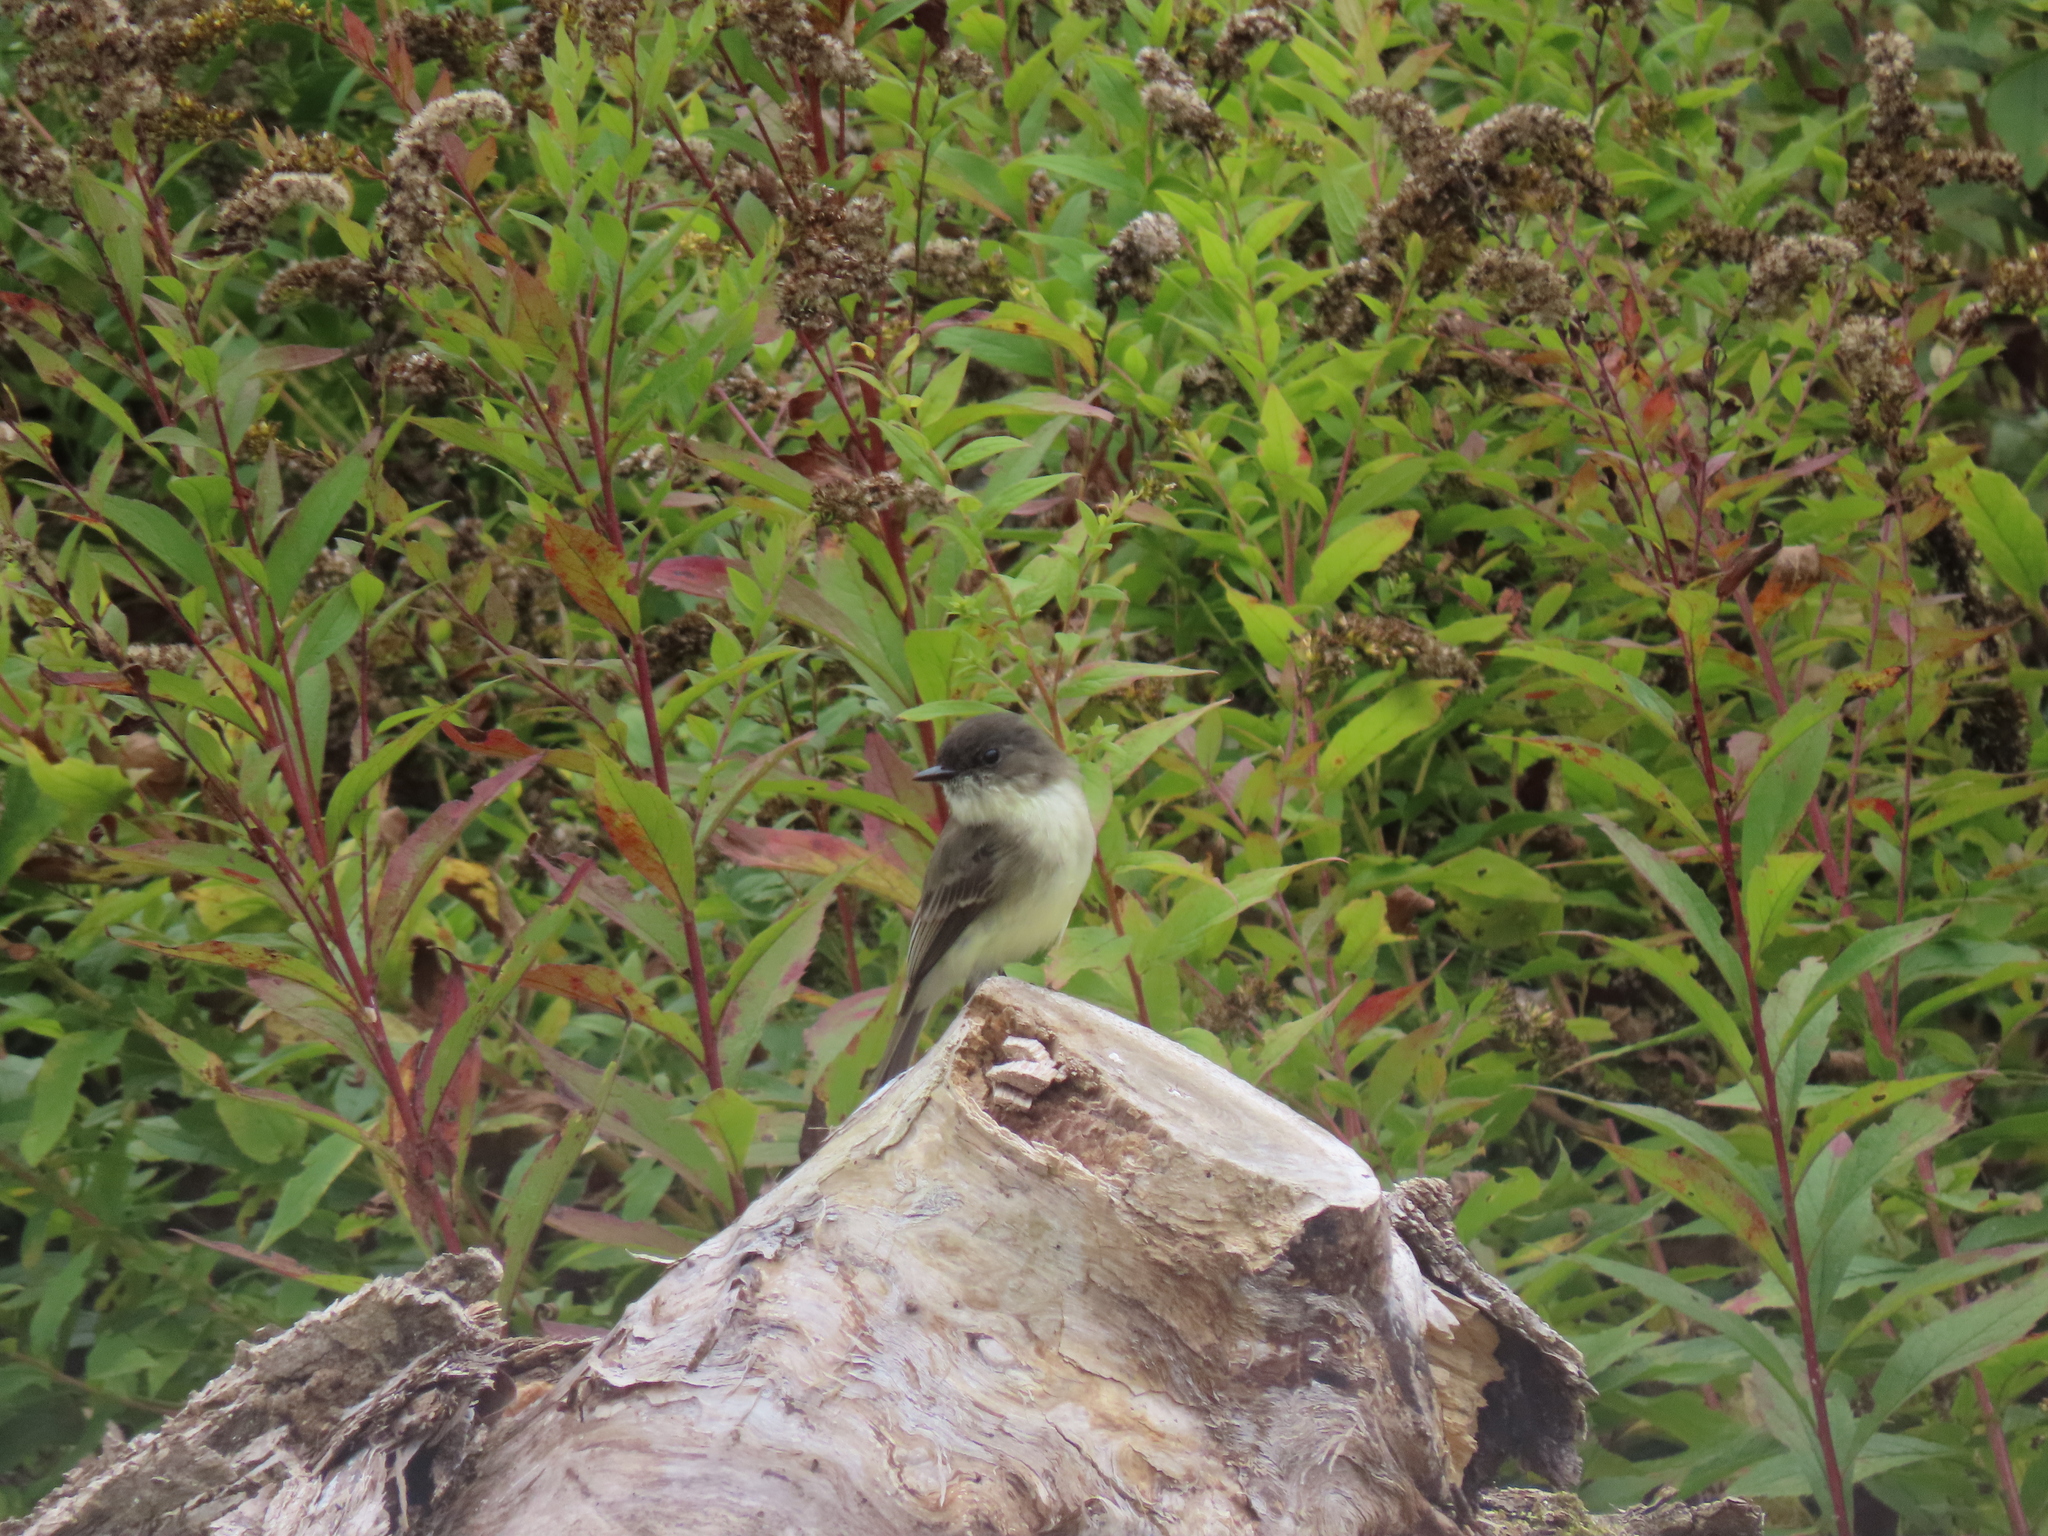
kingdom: Animalia
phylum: Chordata
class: Aves
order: Passeriformes
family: Tyrannidae
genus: Sayornis
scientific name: Sayornis phoebe
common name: Eastern phoebe
